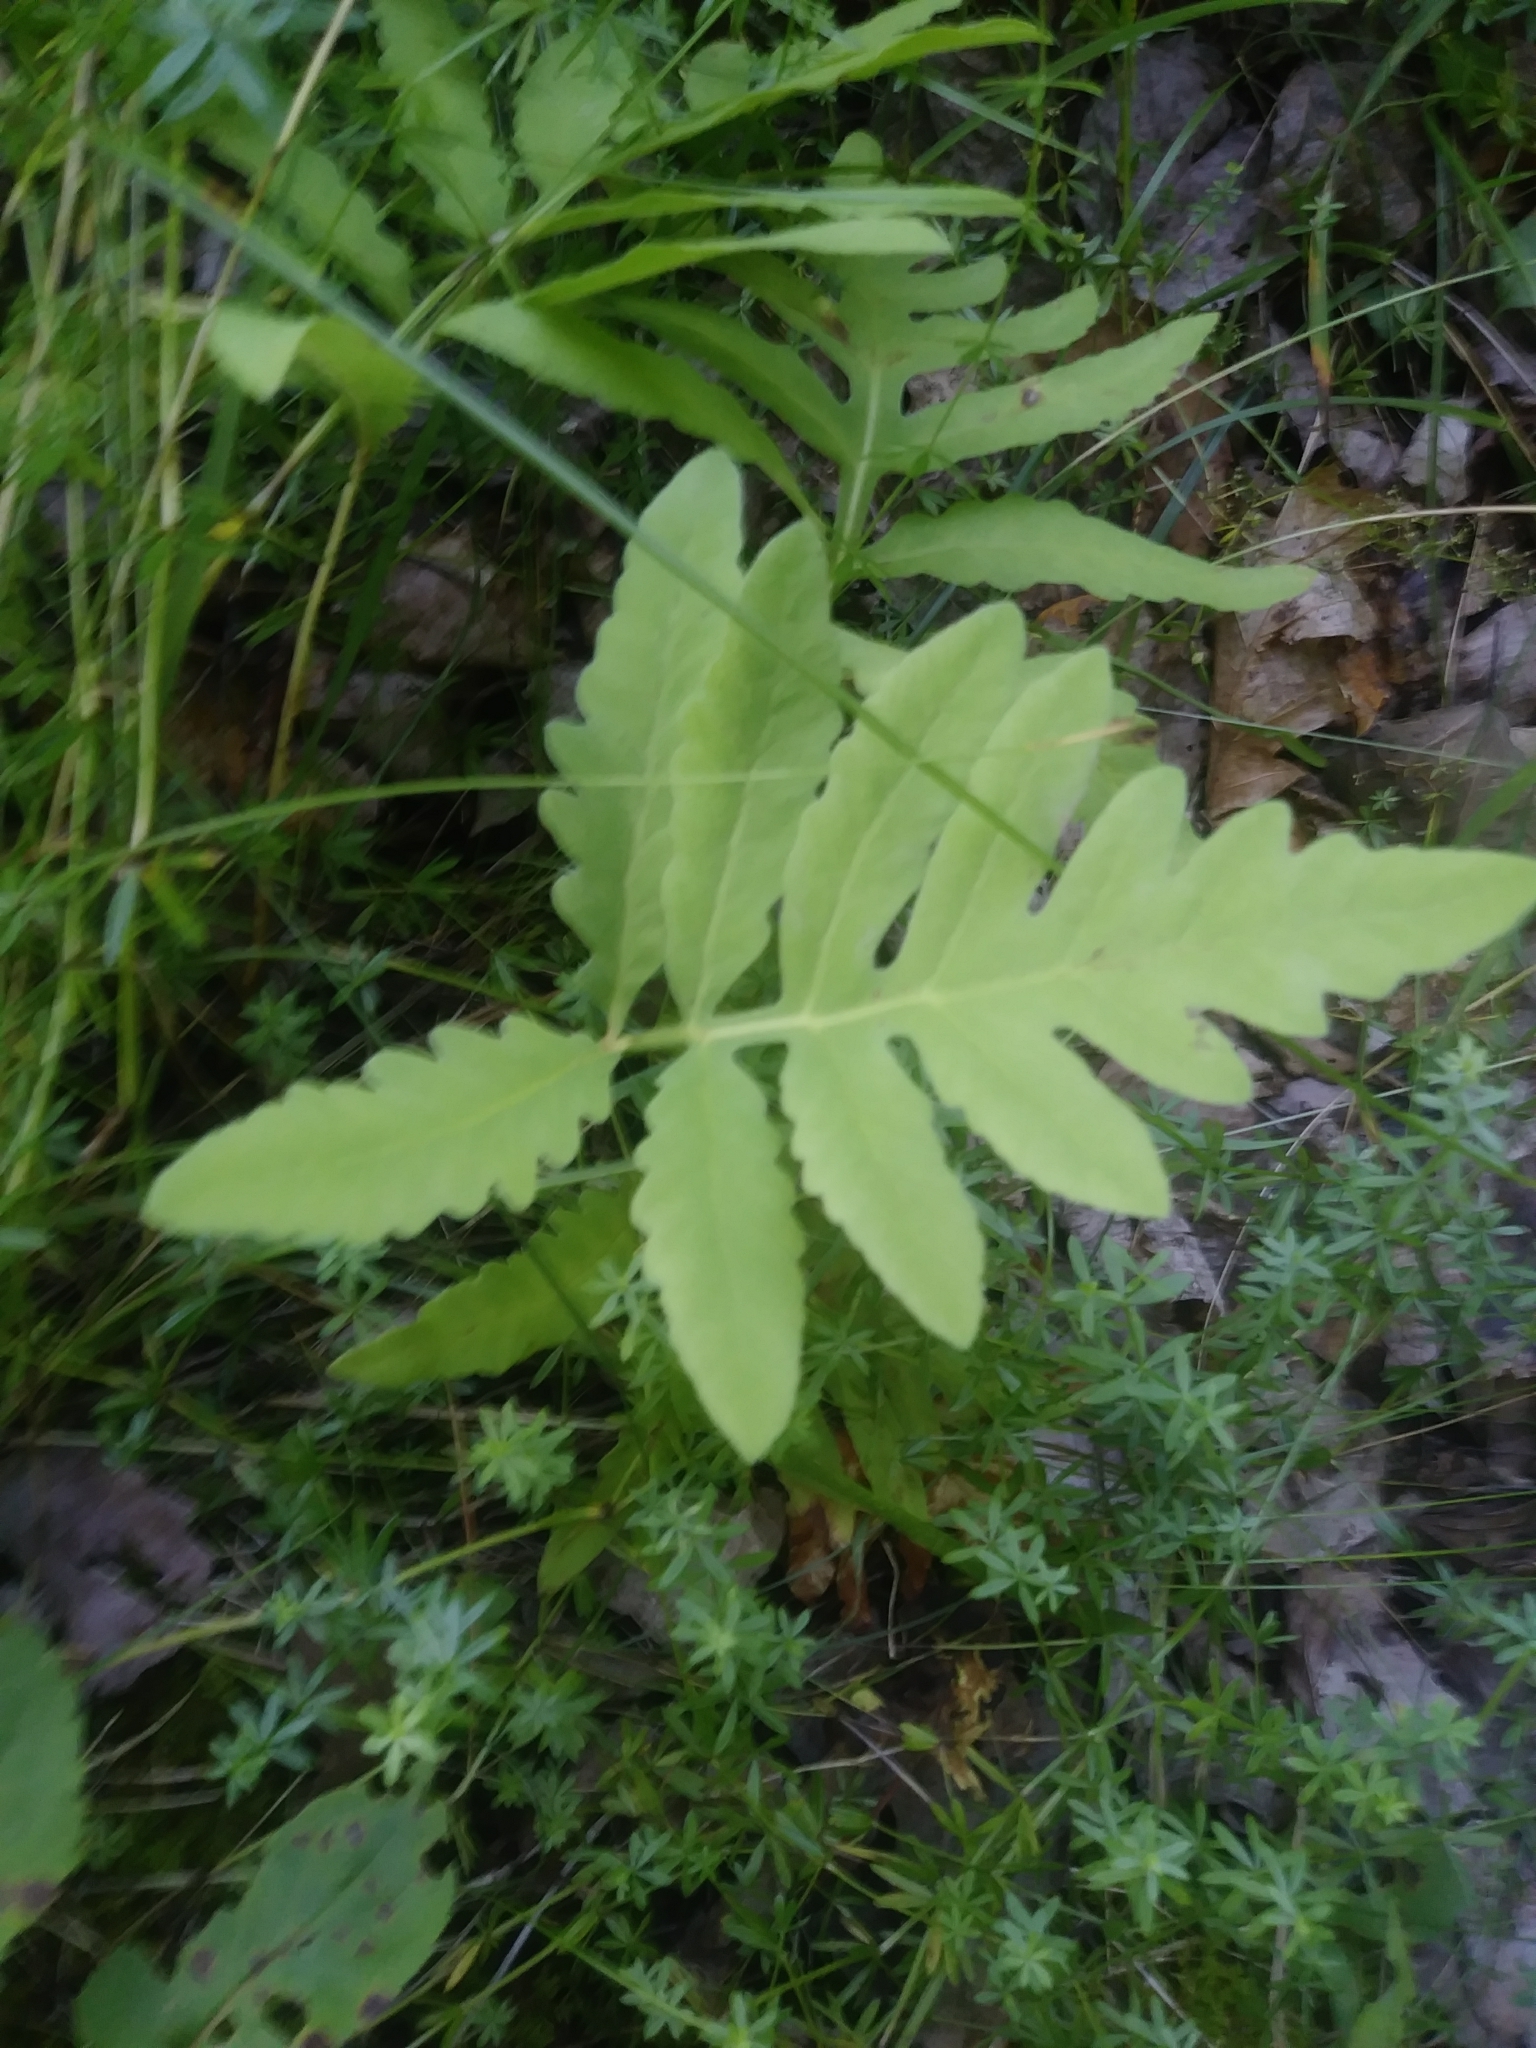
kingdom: Plantae
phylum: Tracheophyta
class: Polypodiopsida
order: Polypodiales
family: Onocleaceae
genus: Onoclea
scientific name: Onoclea sensibilis
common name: Sensitive fern
